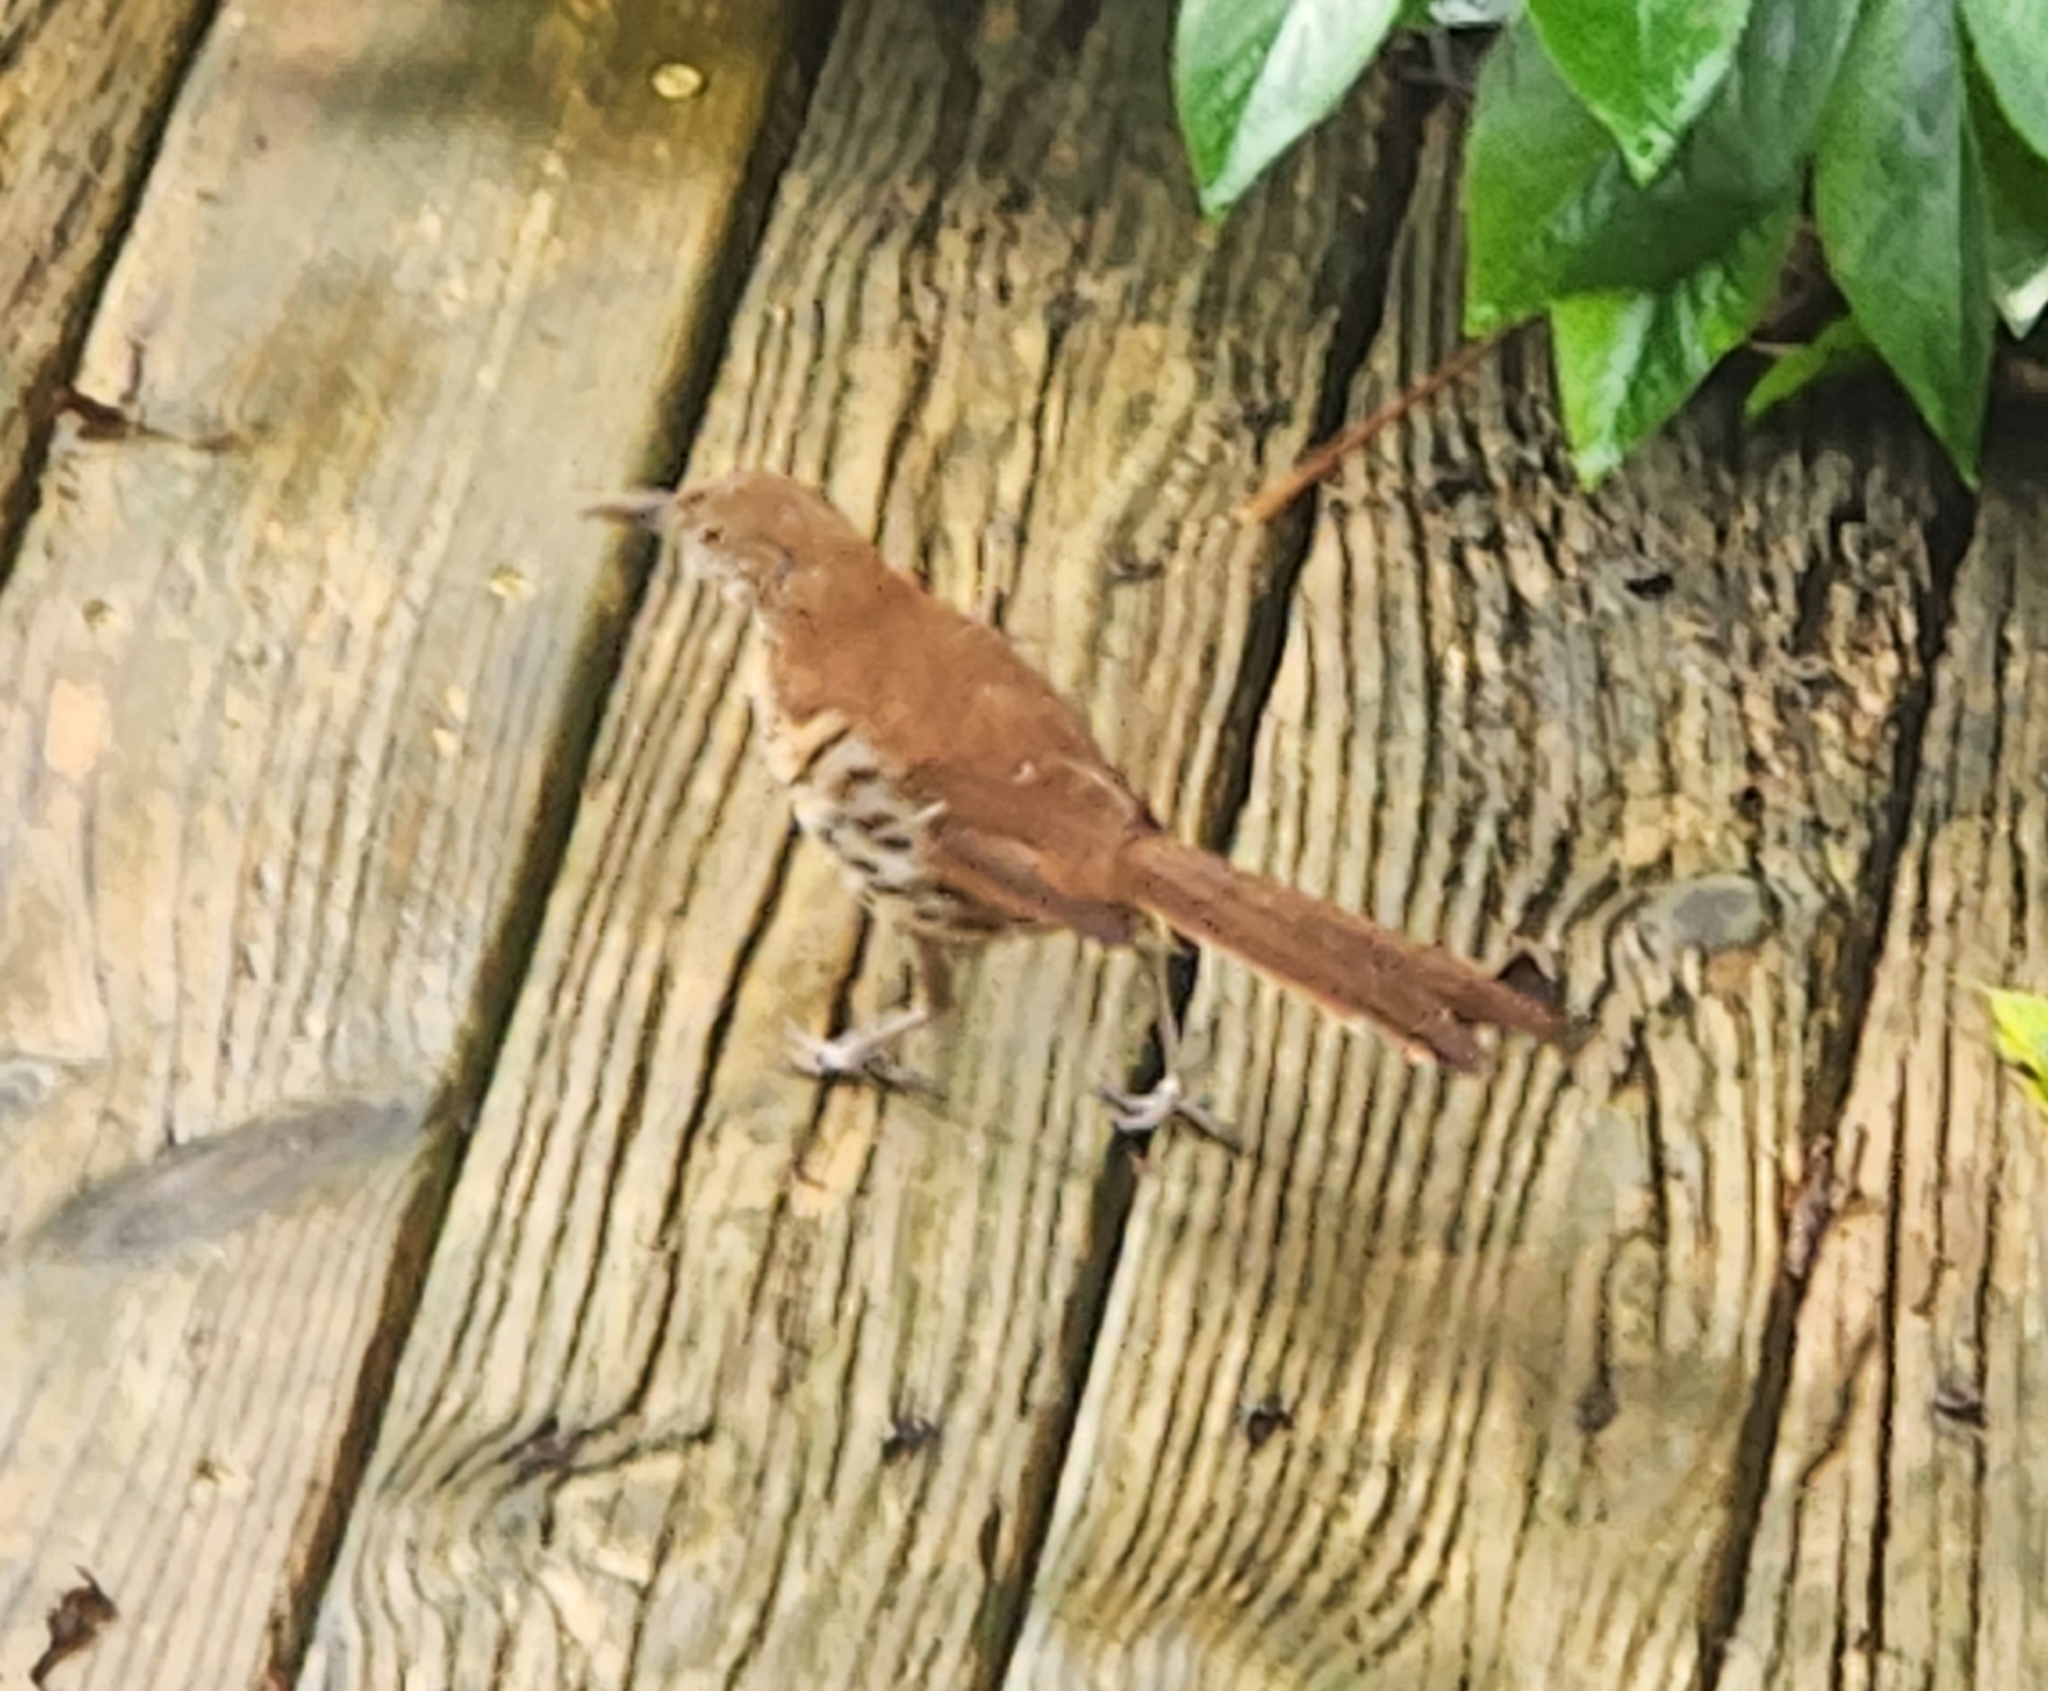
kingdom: Animalia
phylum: Chordata
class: Aves
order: Passeriformes
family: Mimidae
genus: Toxostoma
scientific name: Toxostoma rufum
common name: Brown thrasher
